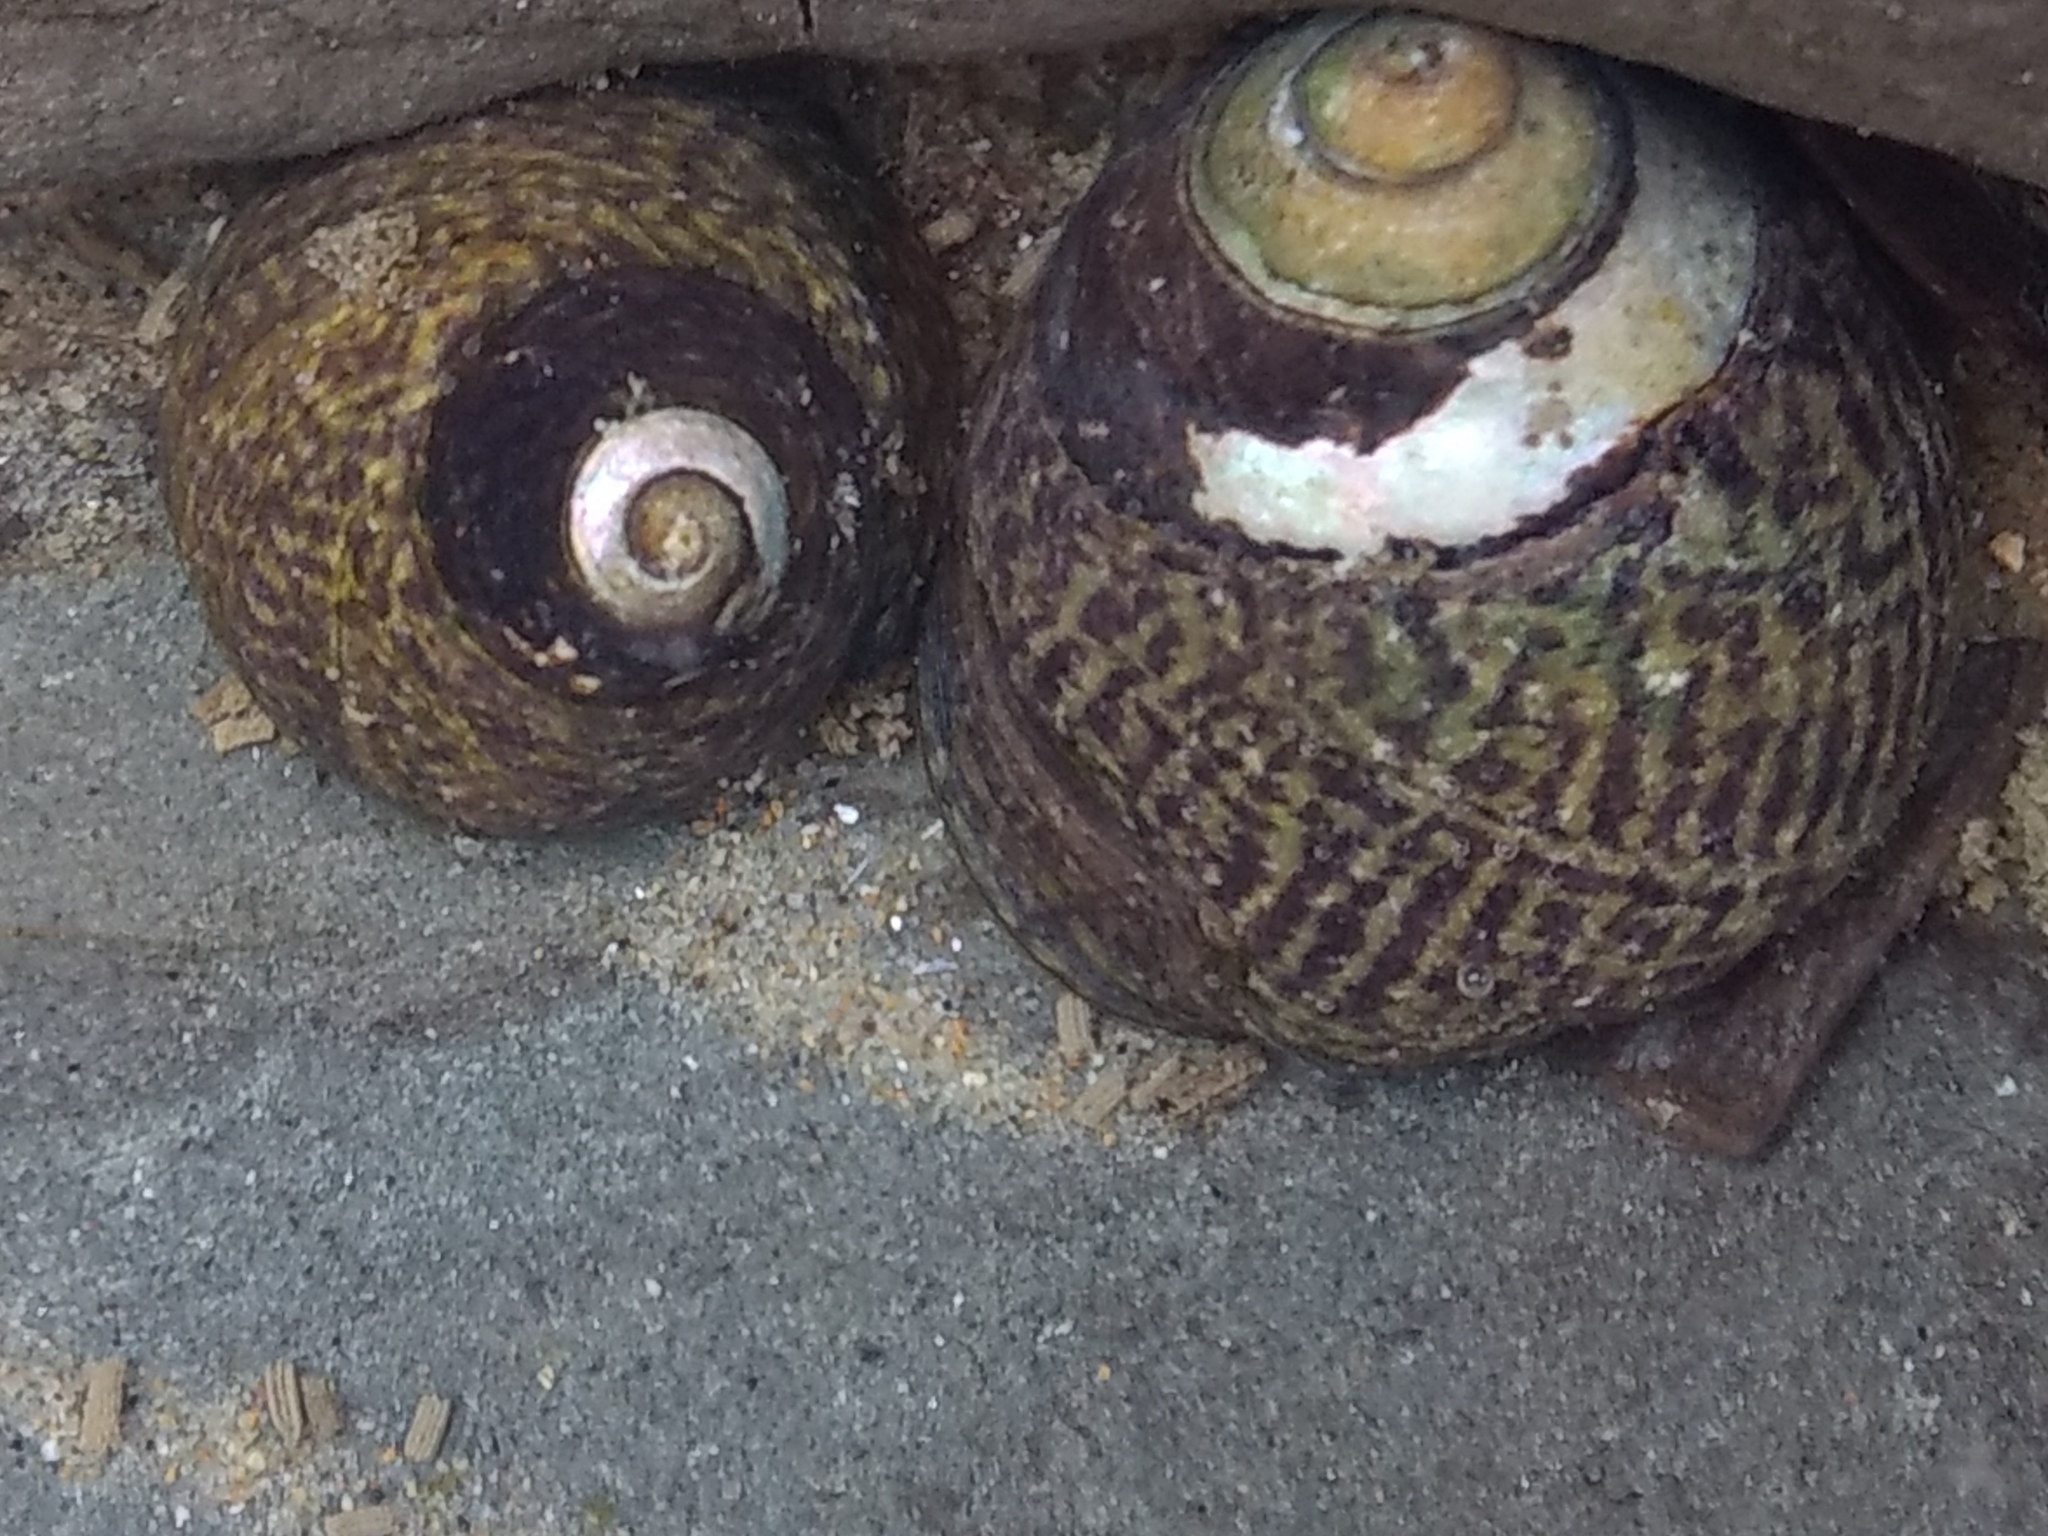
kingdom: Animalia
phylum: Mollusca
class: Gastropoda
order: Trochida
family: Tegulidae
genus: Tegula
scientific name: Tegula gallina
